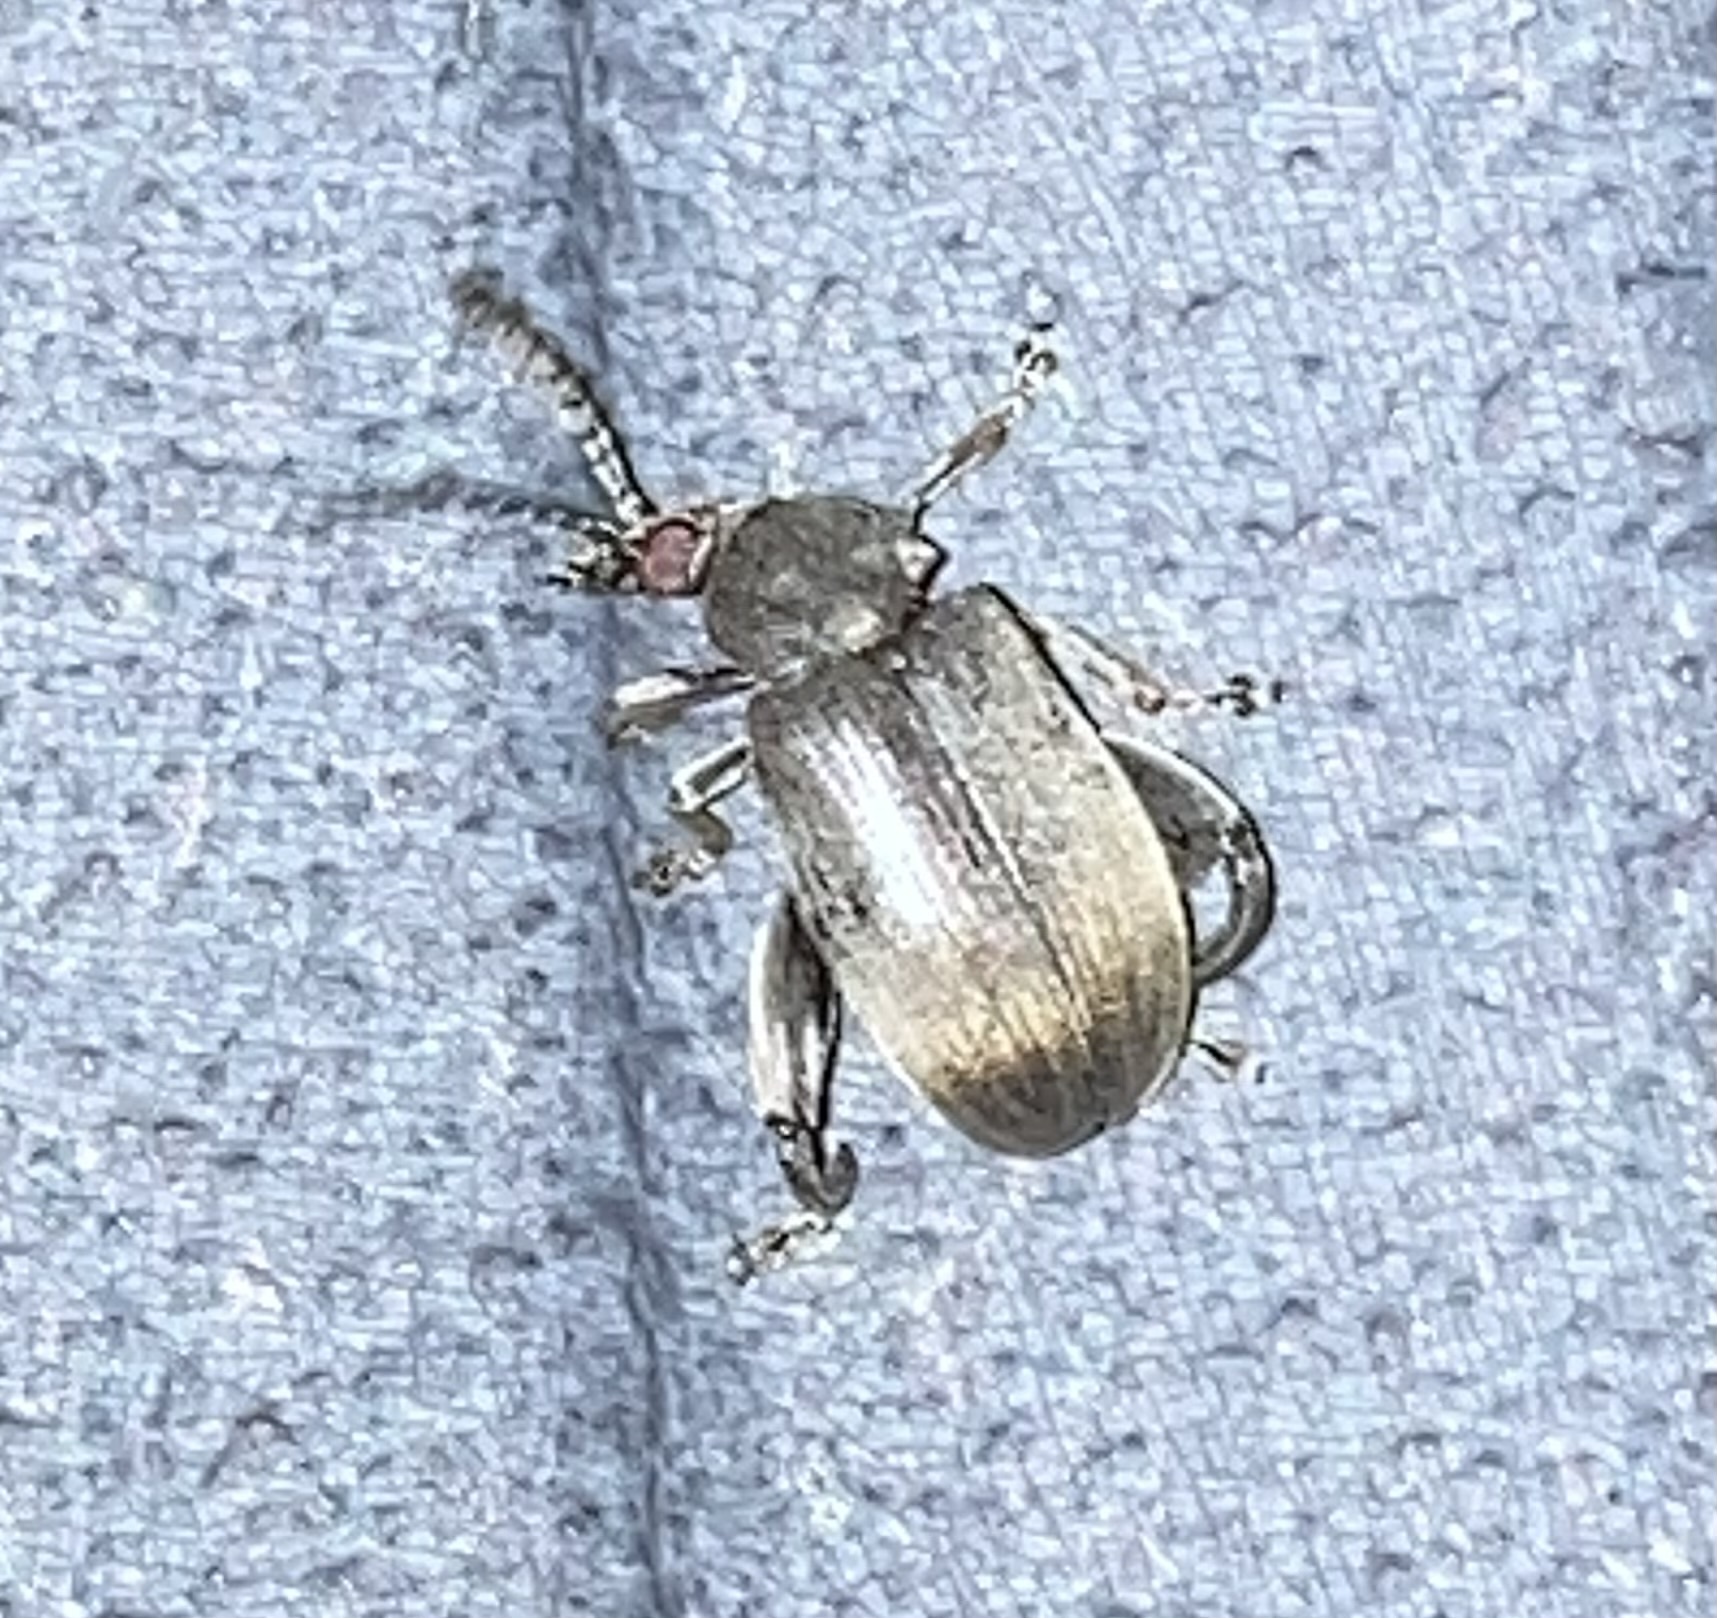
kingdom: Animalia
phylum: Arthropoda
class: Insecta
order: Coleoptera
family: Chrysomelidae
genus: Pachymerus
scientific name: Pachymerus
